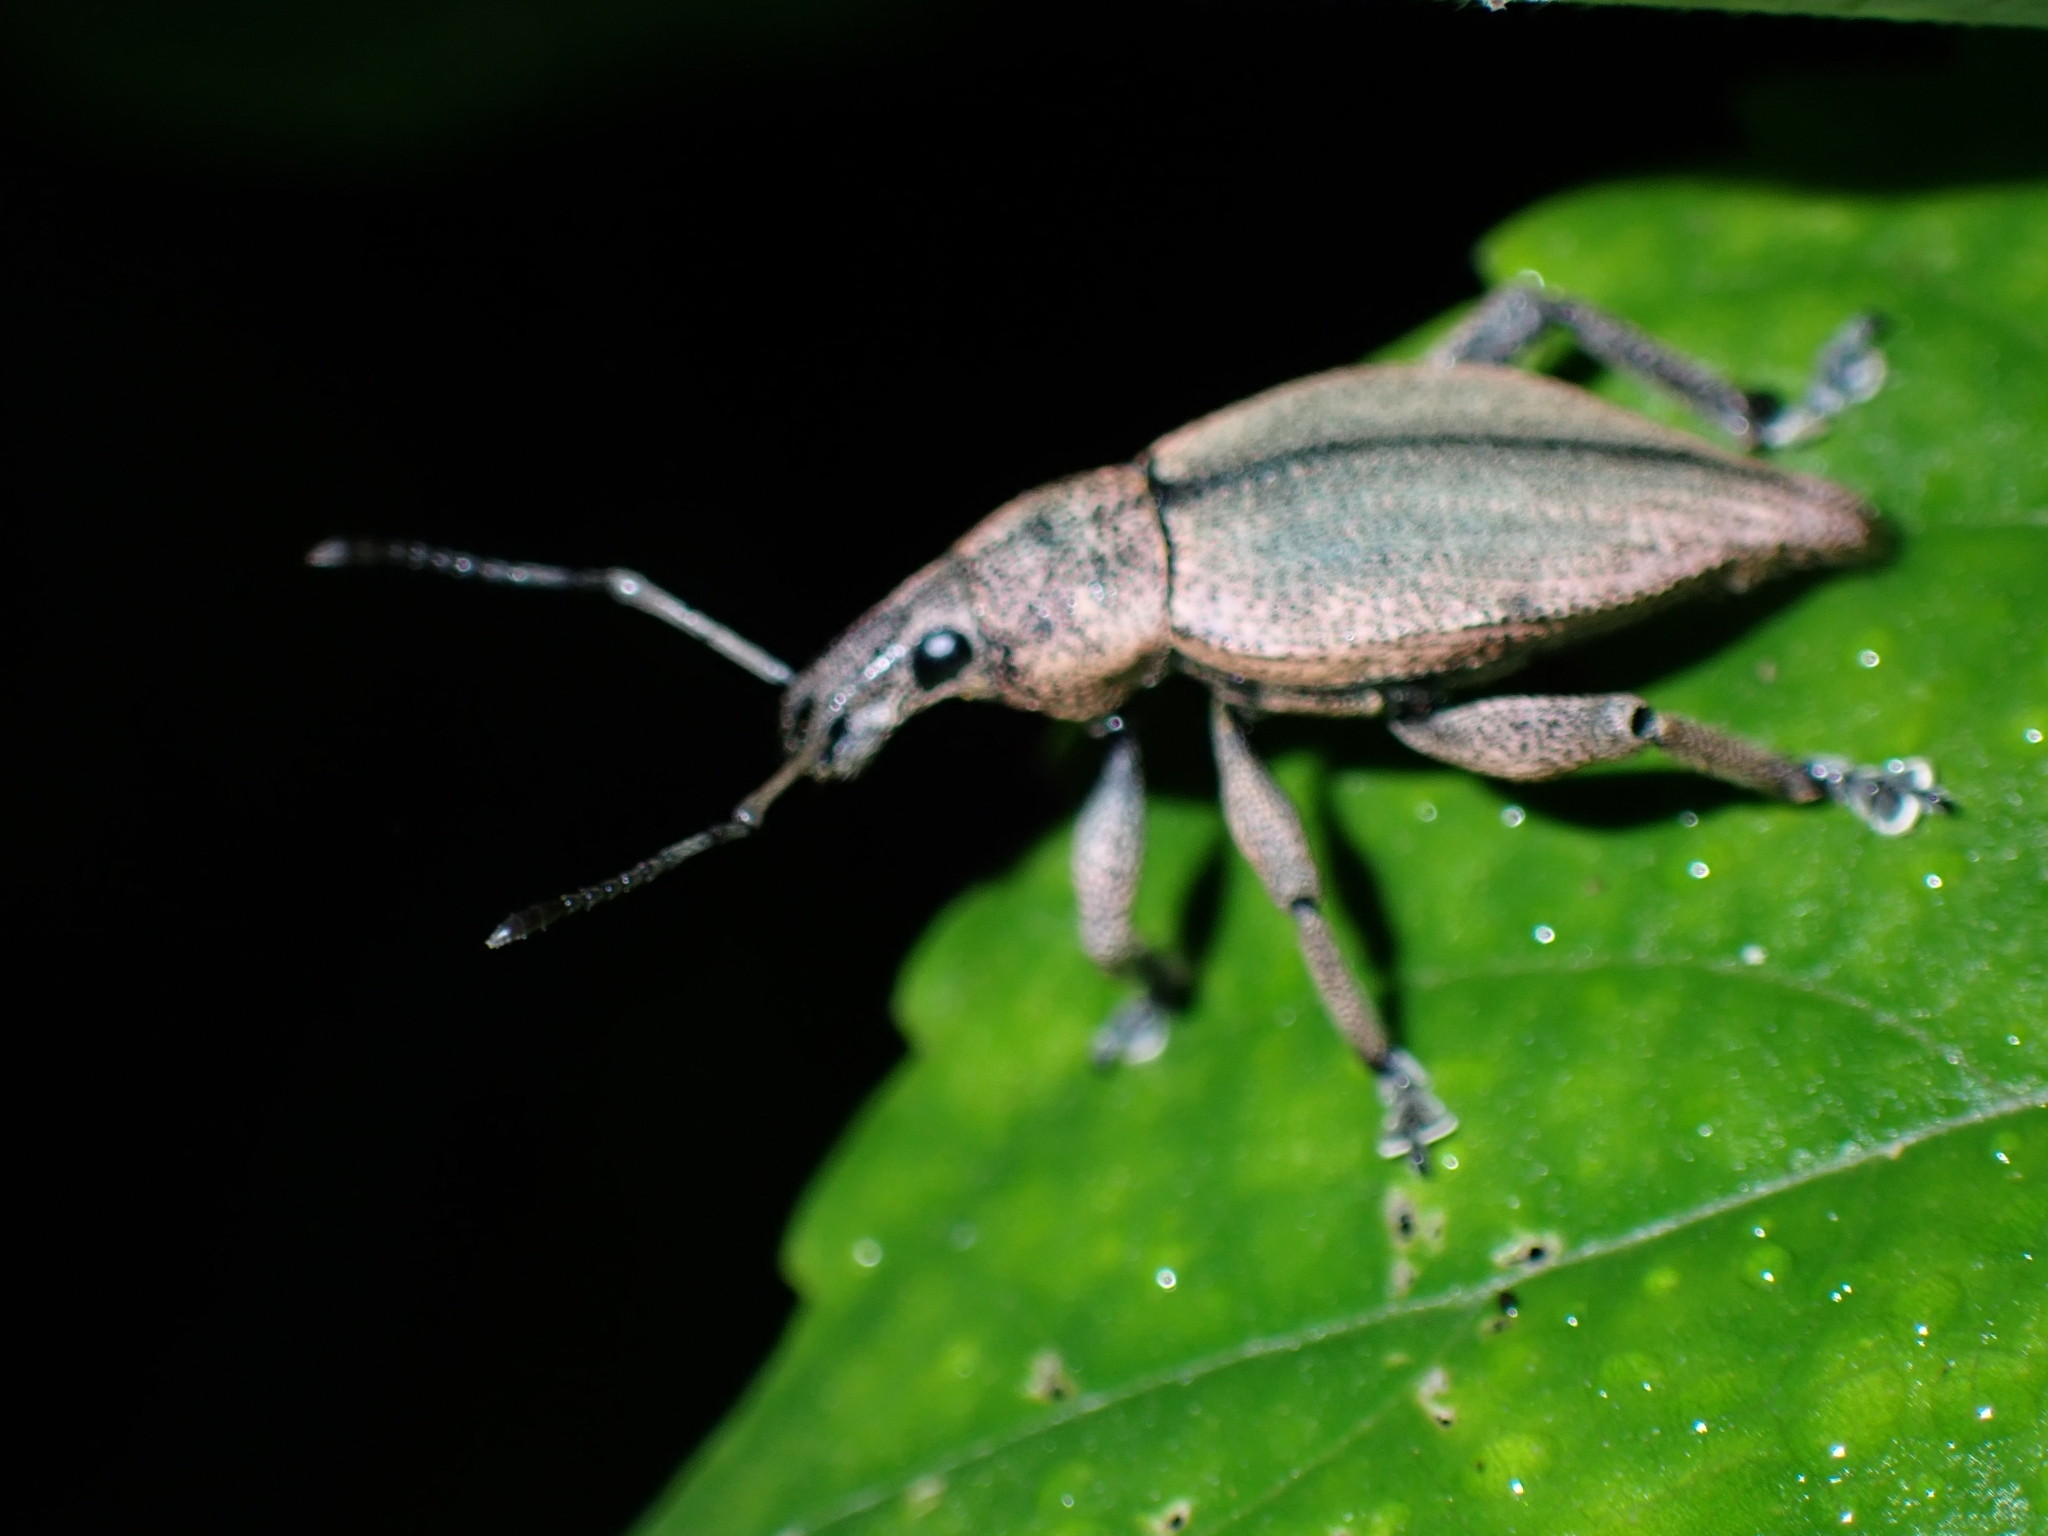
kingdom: Animalia
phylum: Arthropoda
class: Insecta
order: Coleoptera
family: Curculionidae
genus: Elytrurus
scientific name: Elytrurus marginatus
